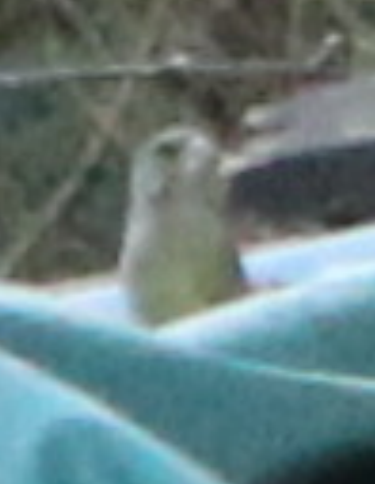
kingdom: Plantae
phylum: Tracheophyta
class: Liliopsida
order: Poales
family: Poaceae
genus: Chloris
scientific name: Chloris chloris
